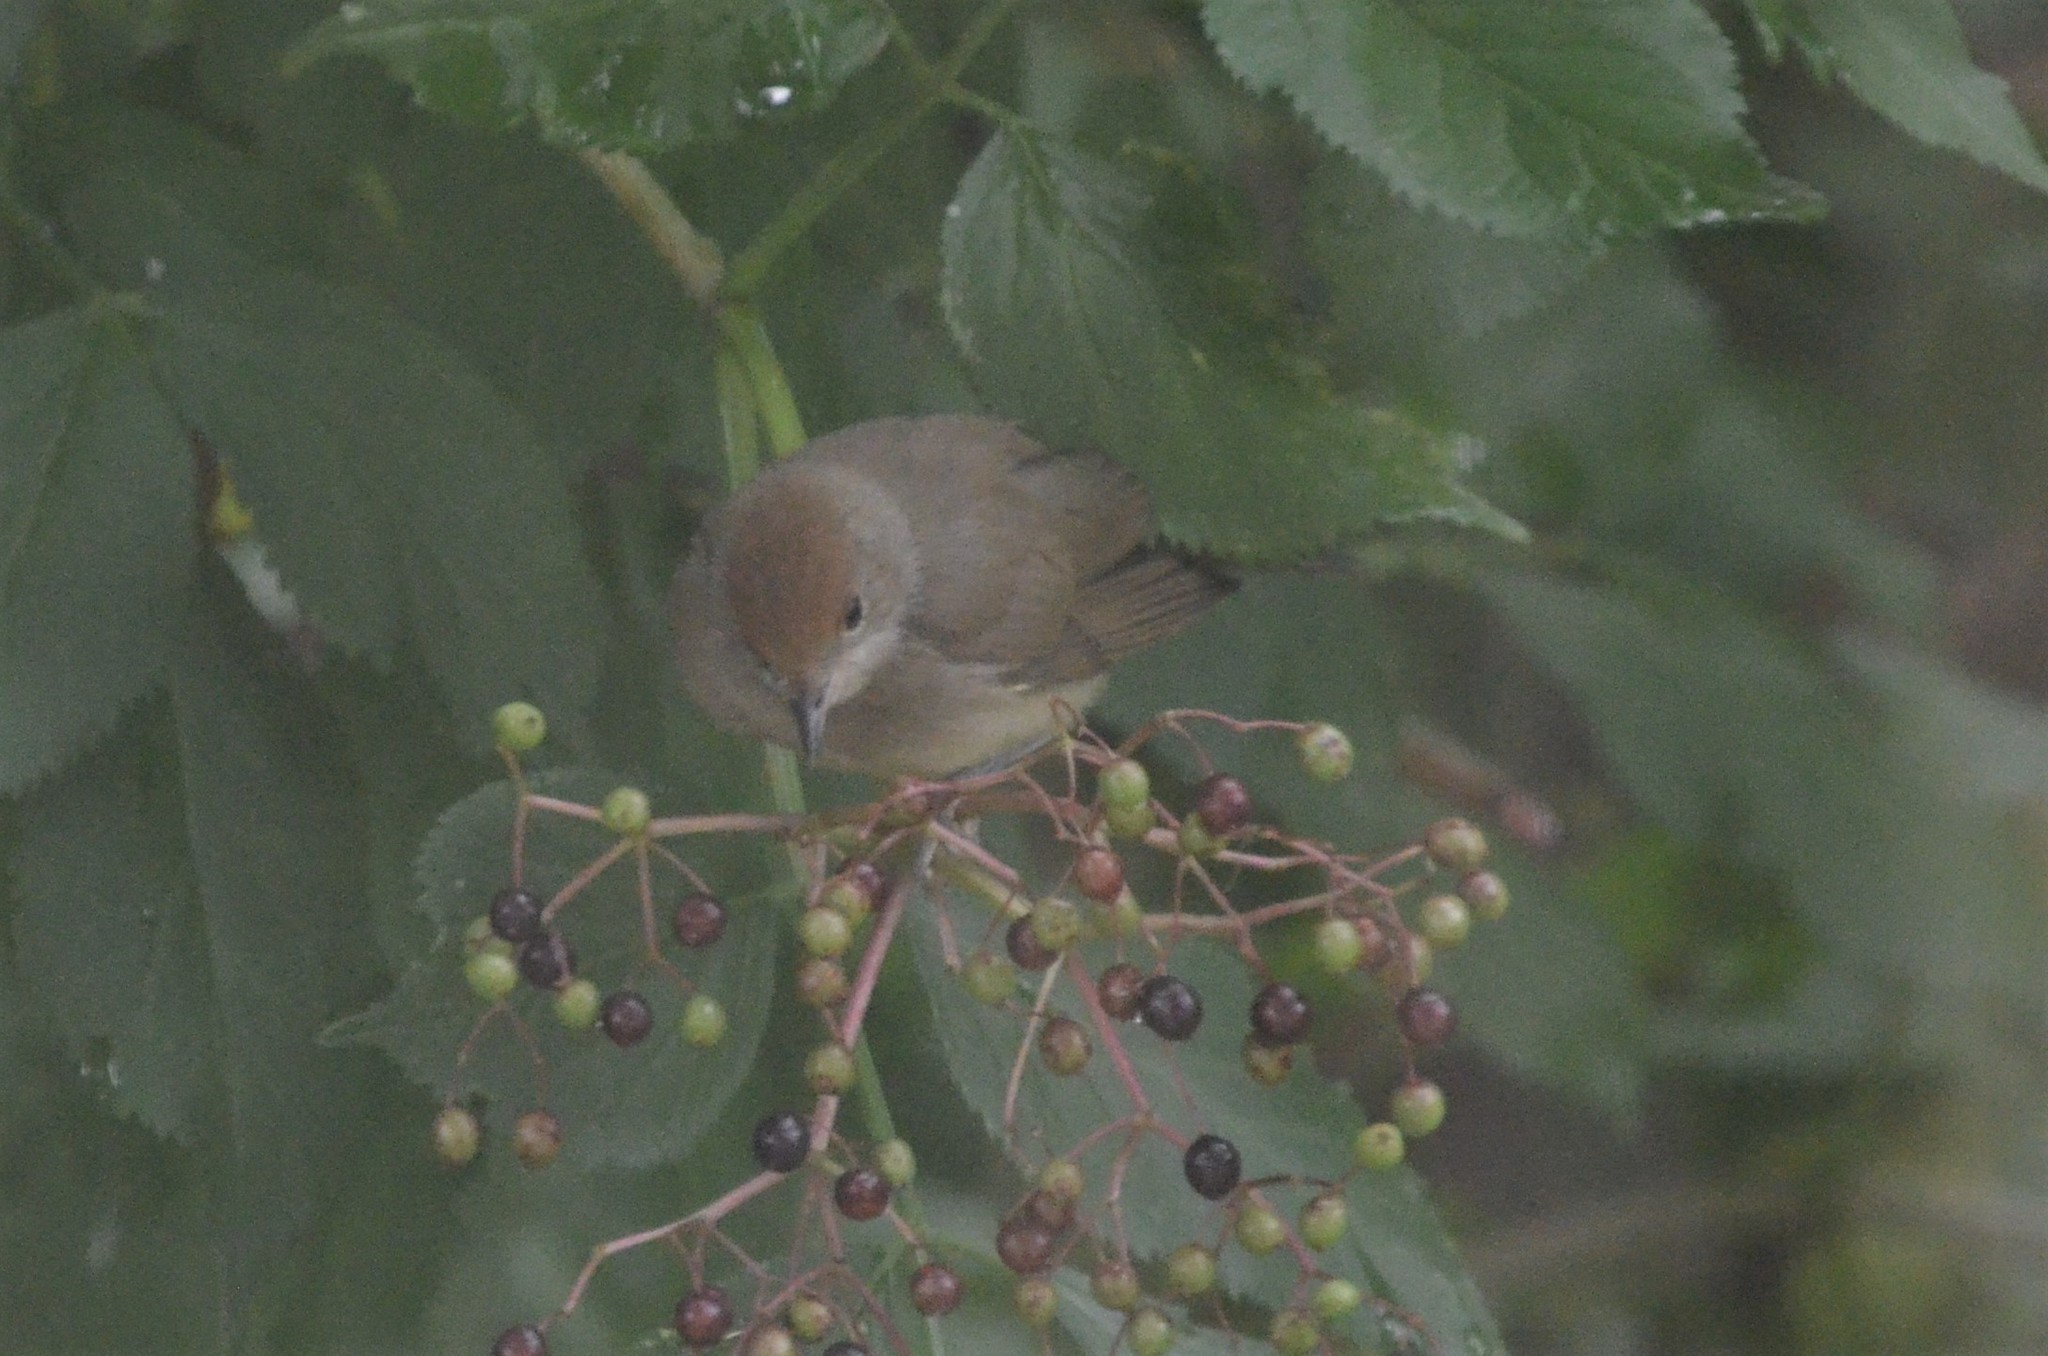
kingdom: Animalia
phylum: Chordata
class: Aves
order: Passeriformes
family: Sylviidae
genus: Sylvia
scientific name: Sylvia atricapilla
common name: Eurasian blackcap
